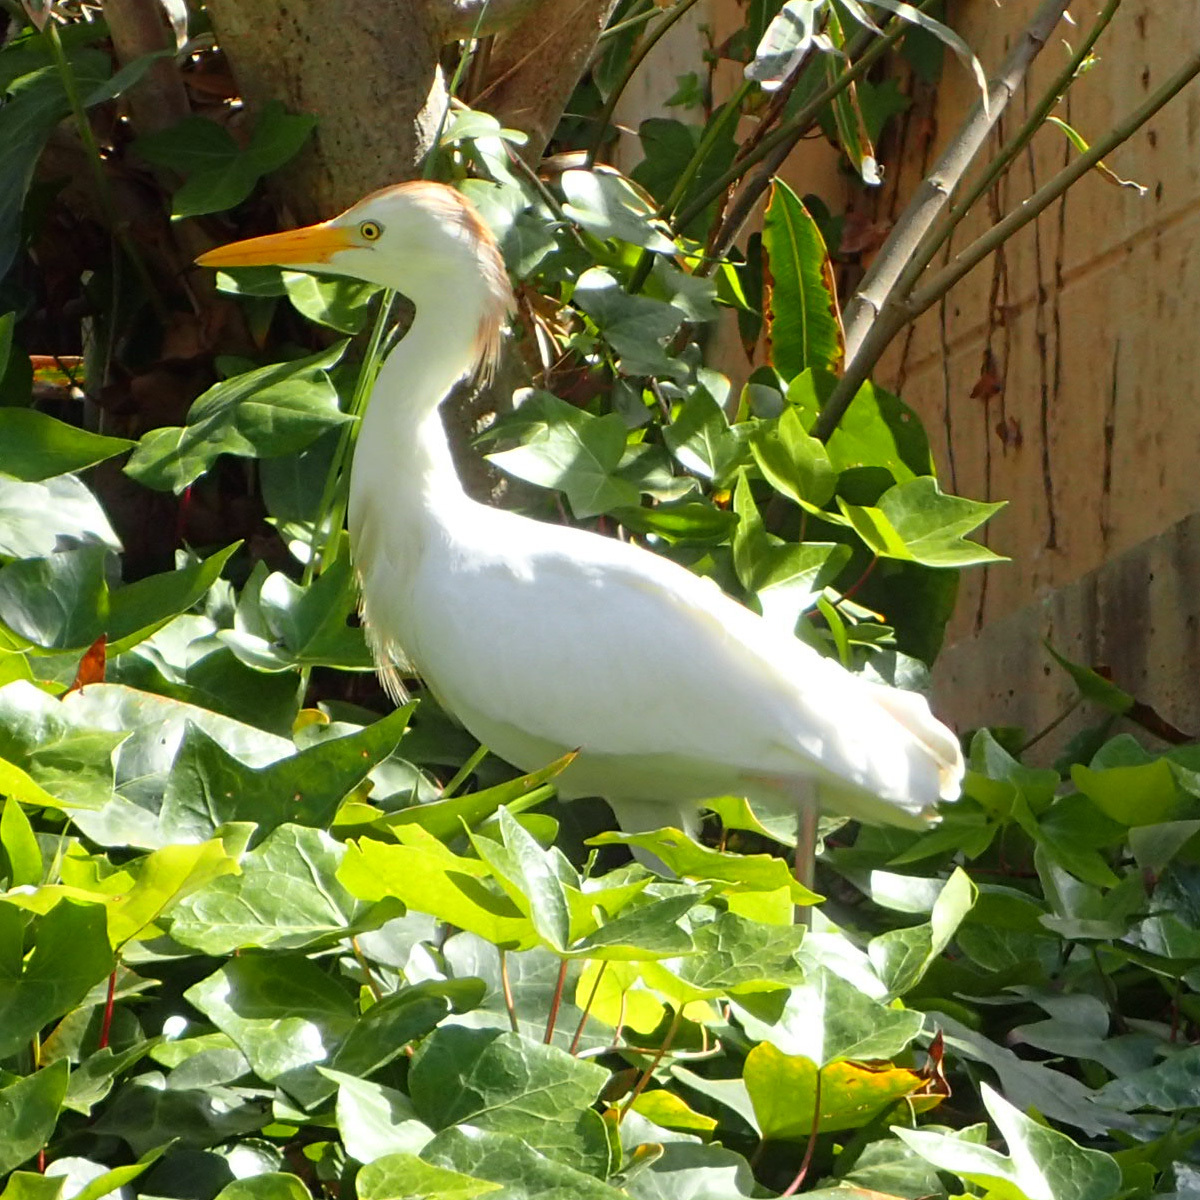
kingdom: Animalia
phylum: Chordata
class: Aves
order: Pelecaniformes
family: Ardeidae
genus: Bubulcus
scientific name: Bubulcus ibis
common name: Cattle egret
